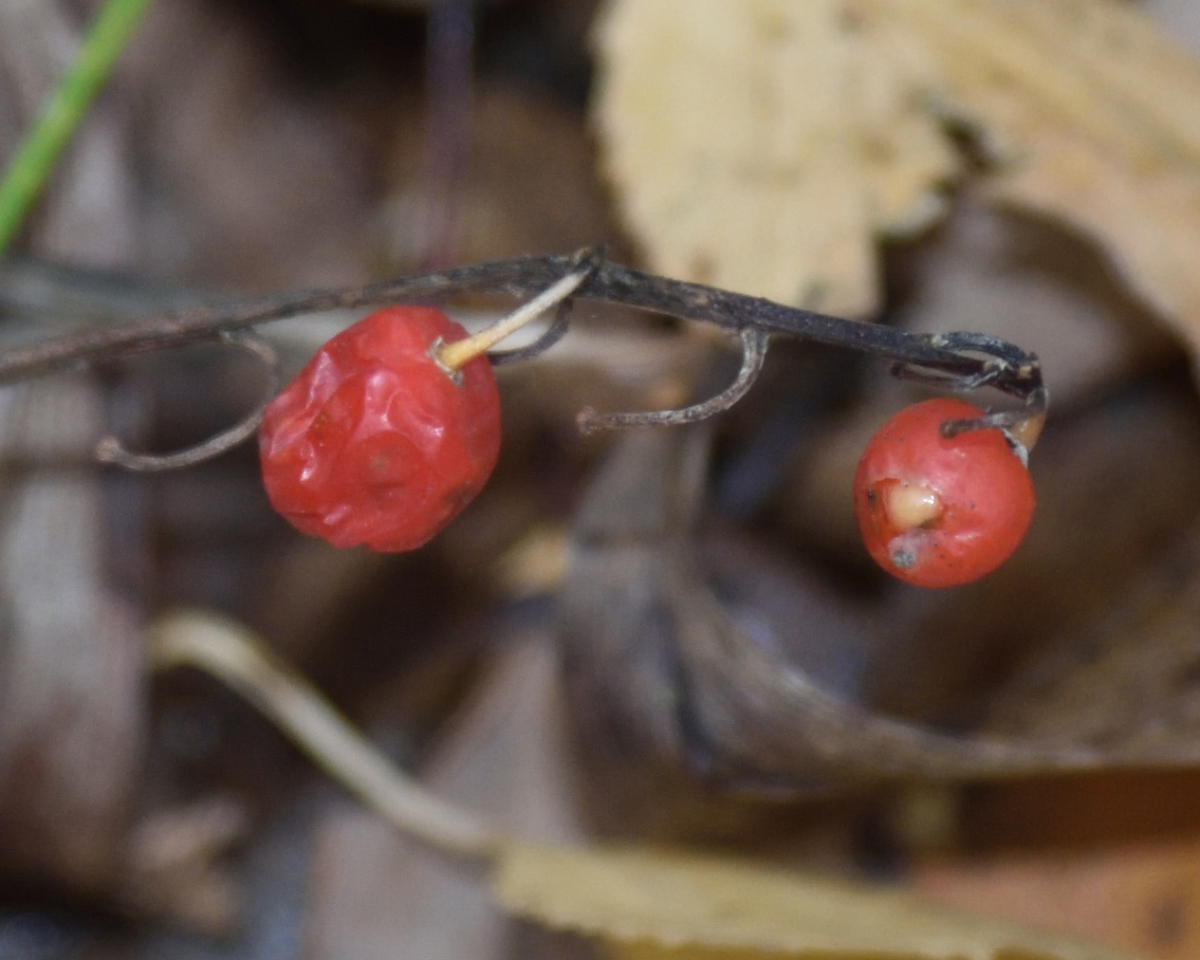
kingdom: Plantae
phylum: Tracheophyta
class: Liliopsida
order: Asparagales
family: Asparagaceae
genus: Convallaria
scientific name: Convallaria majalis
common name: Lily-of-the-valley
